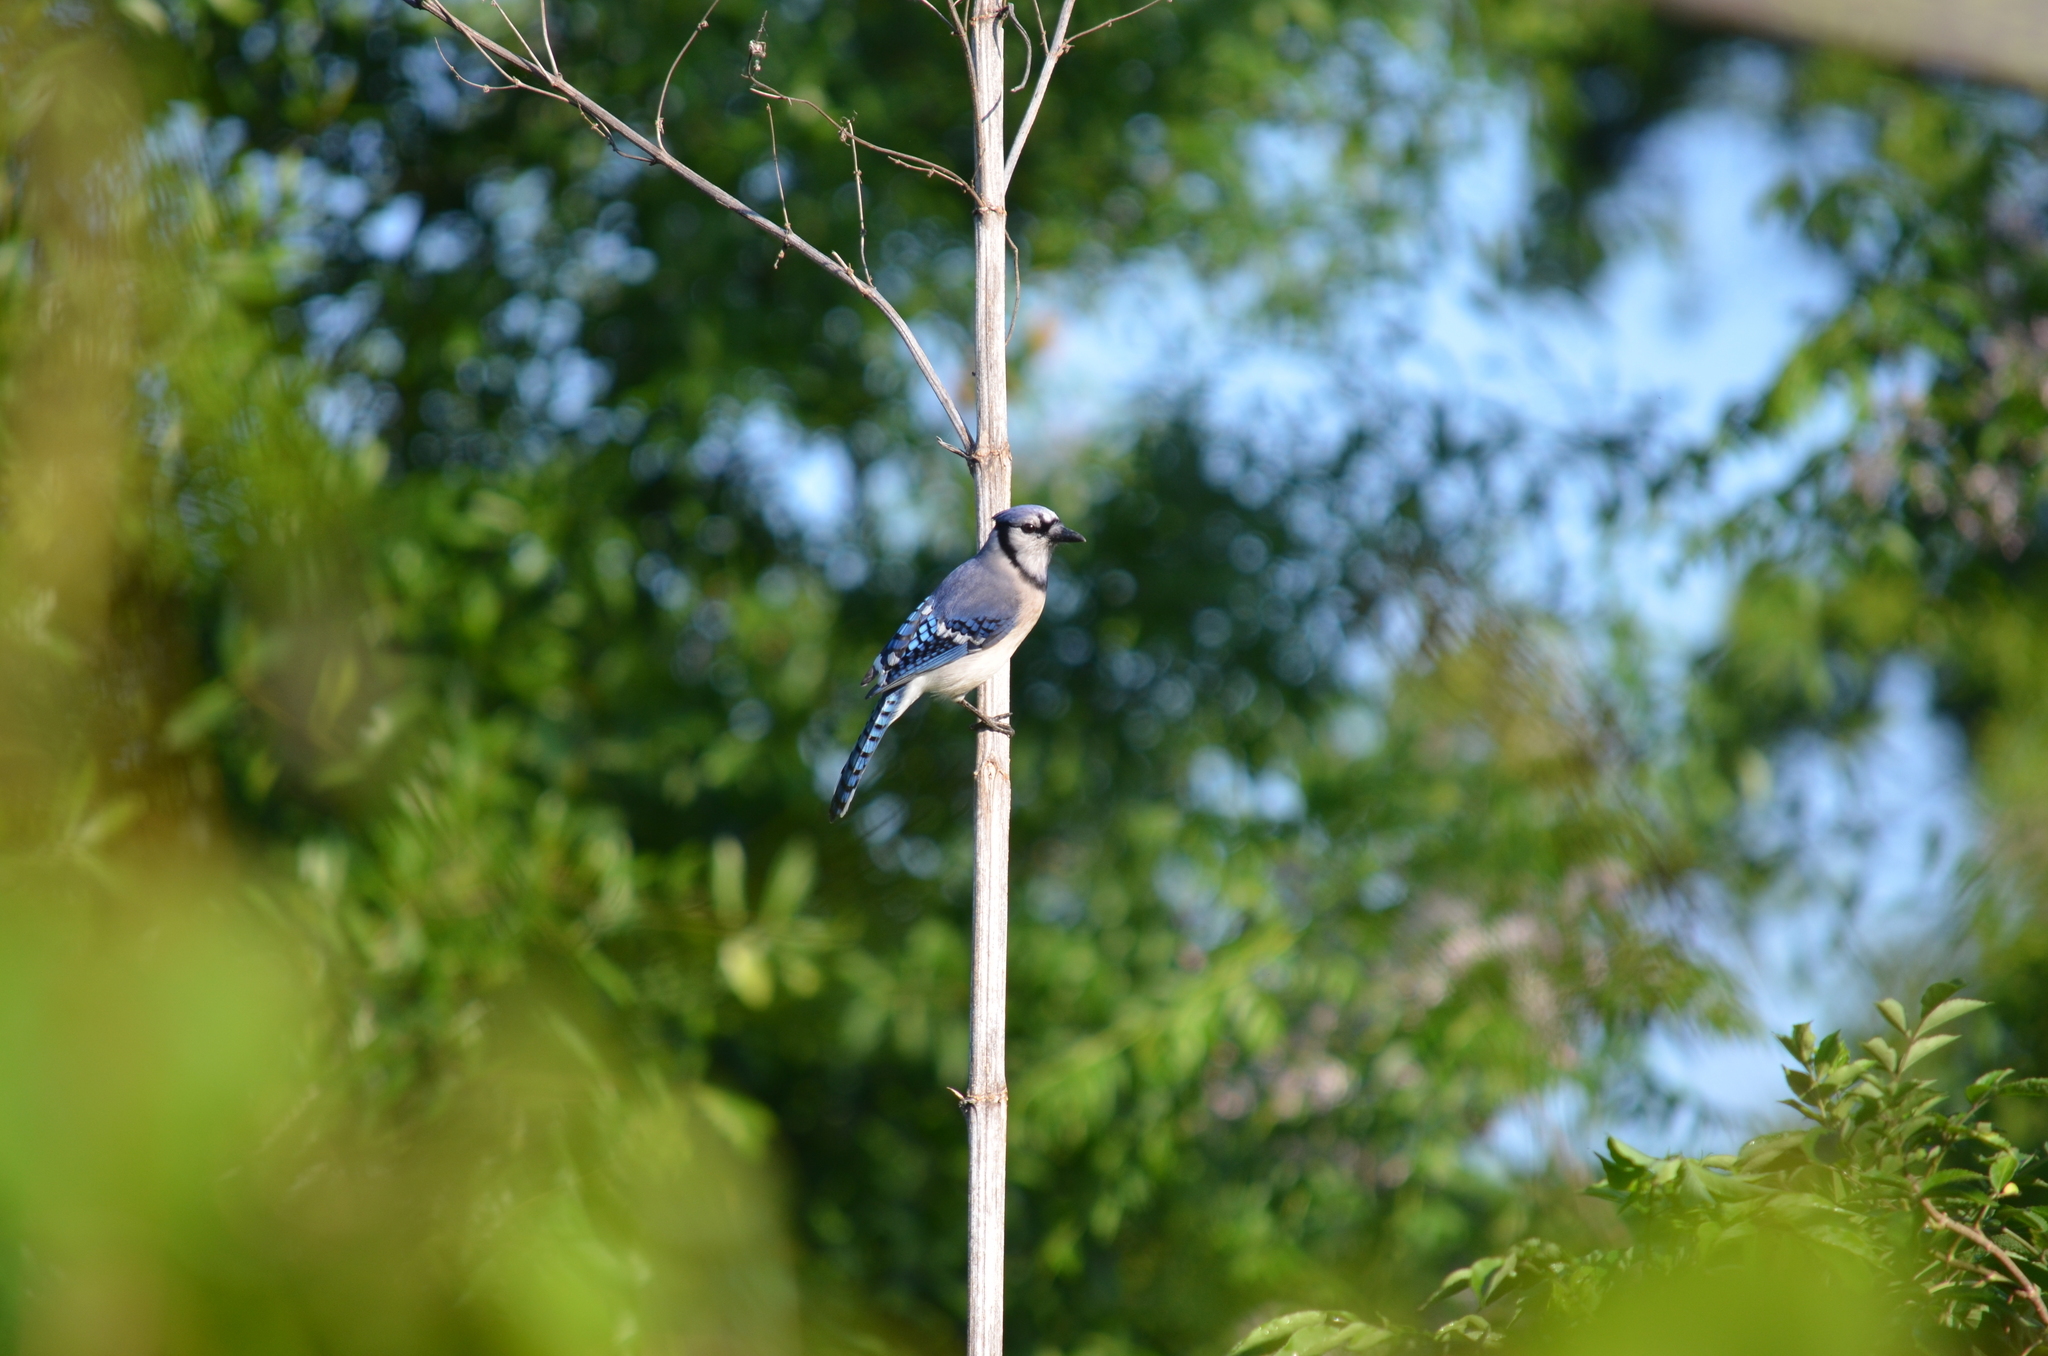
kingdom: Animalia
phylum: Chordata
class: Aves
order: Passeriformes
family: Corvidae
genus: Cyanocitta
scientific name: Cyanocitta cristata
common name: Blue jay
